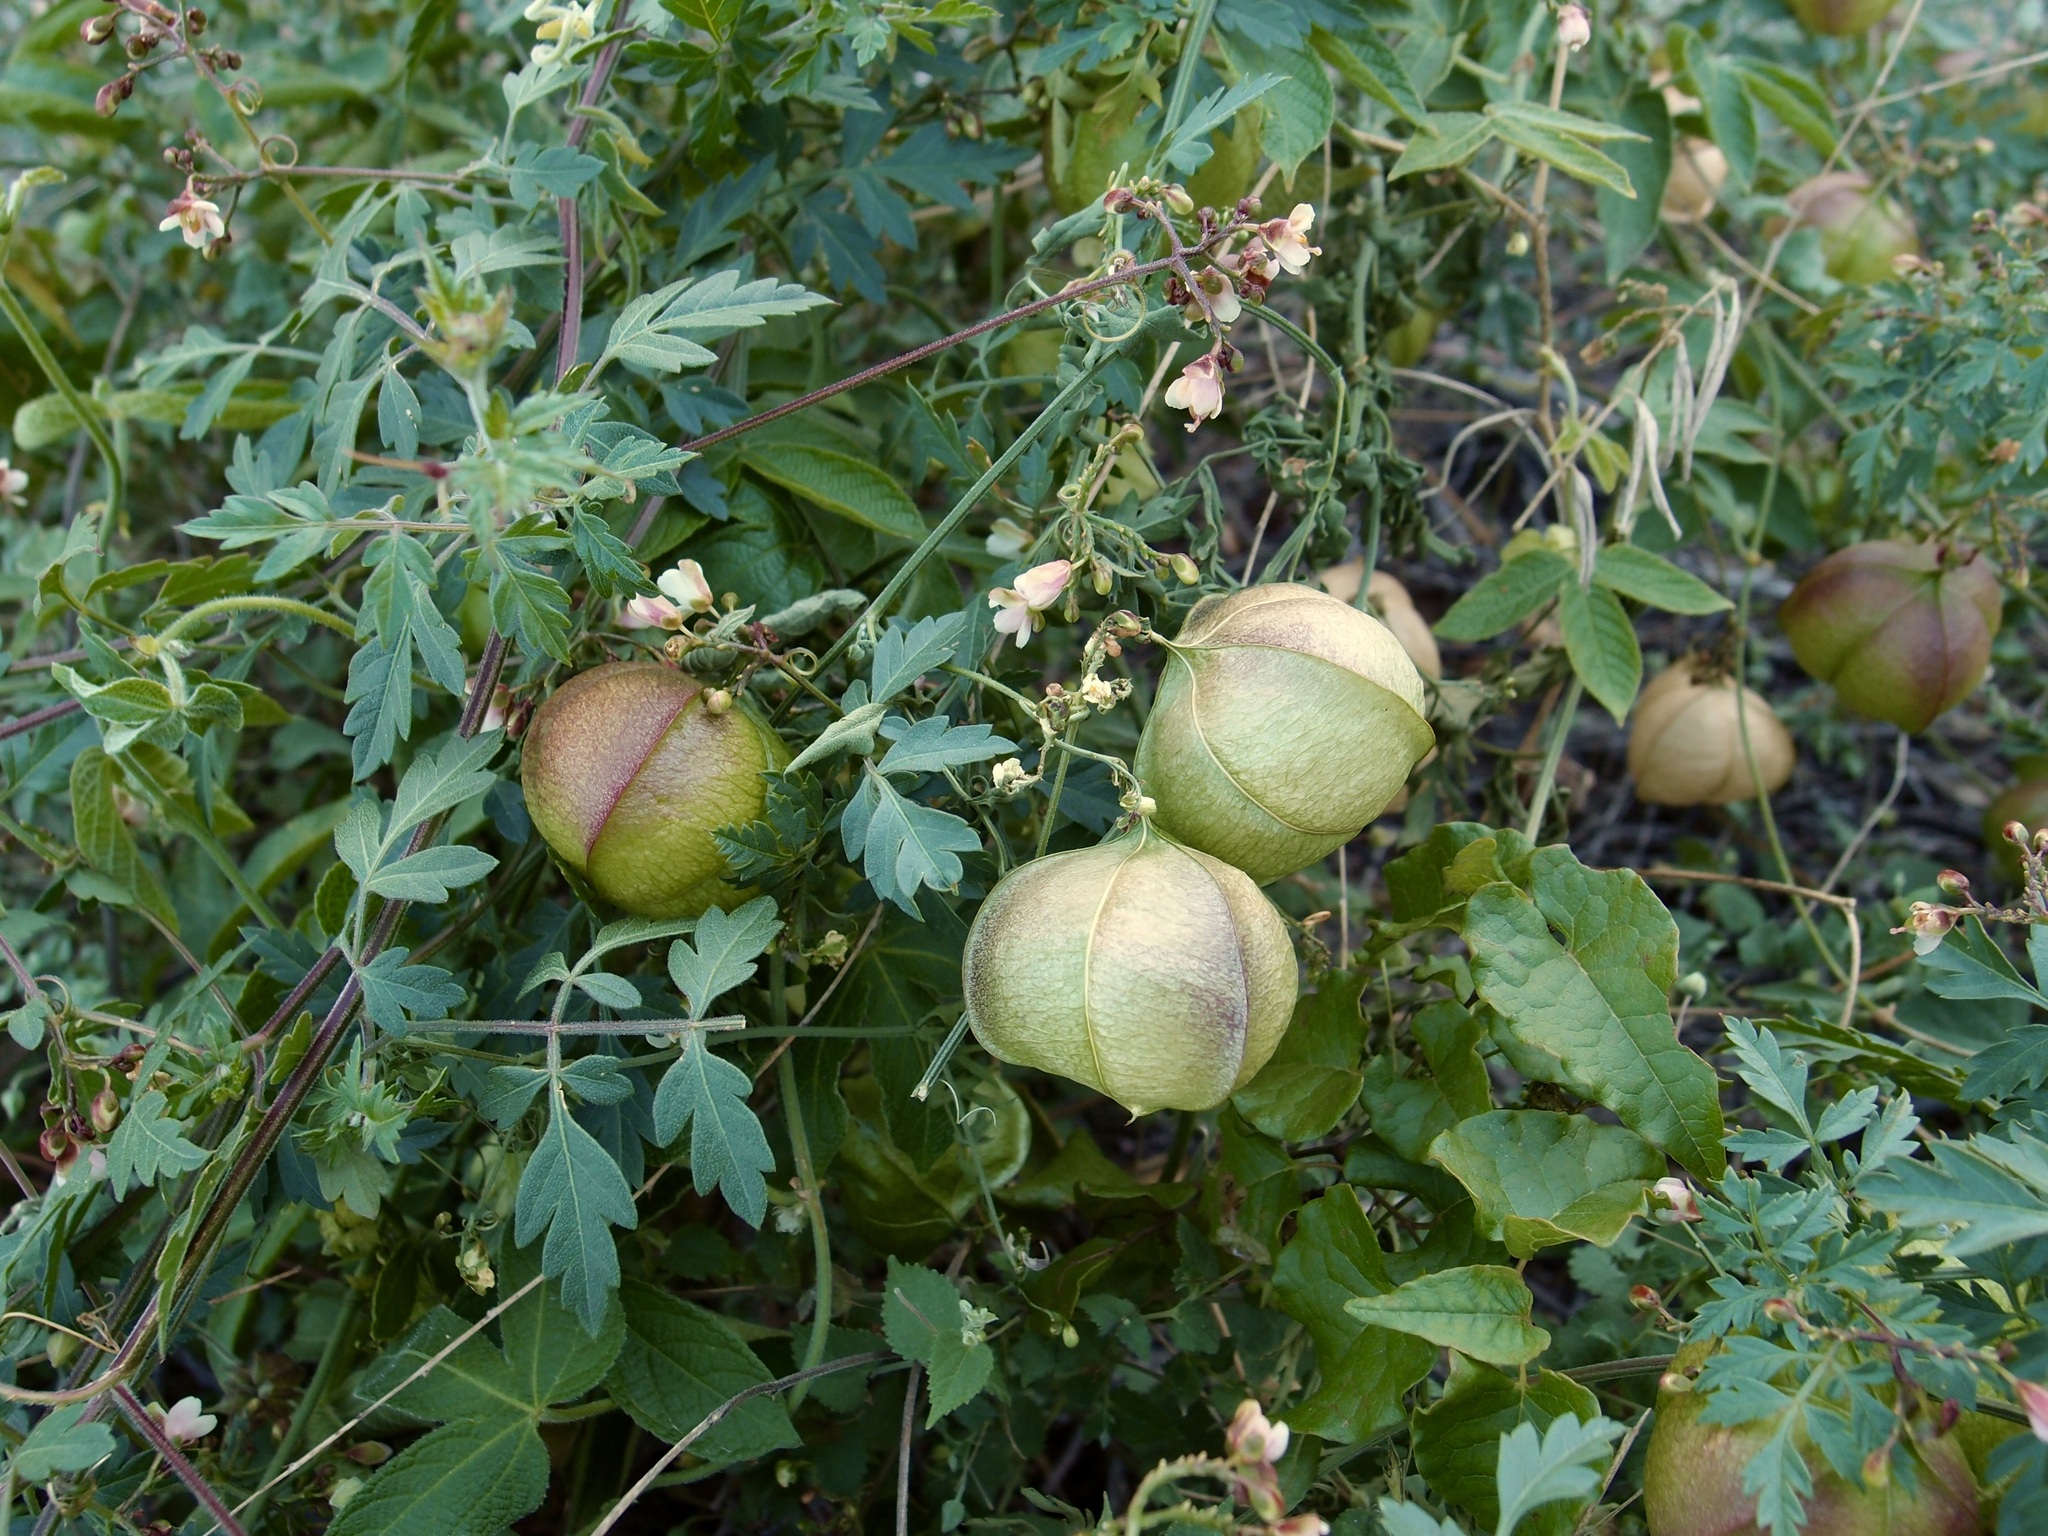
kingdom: Plantae
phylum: Tracheophyta
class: Magnoliopsida
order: Sapindales
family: Sapindaceae
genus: Cardiospermum
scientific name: Cardiospermum corindum
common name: Faux persil
